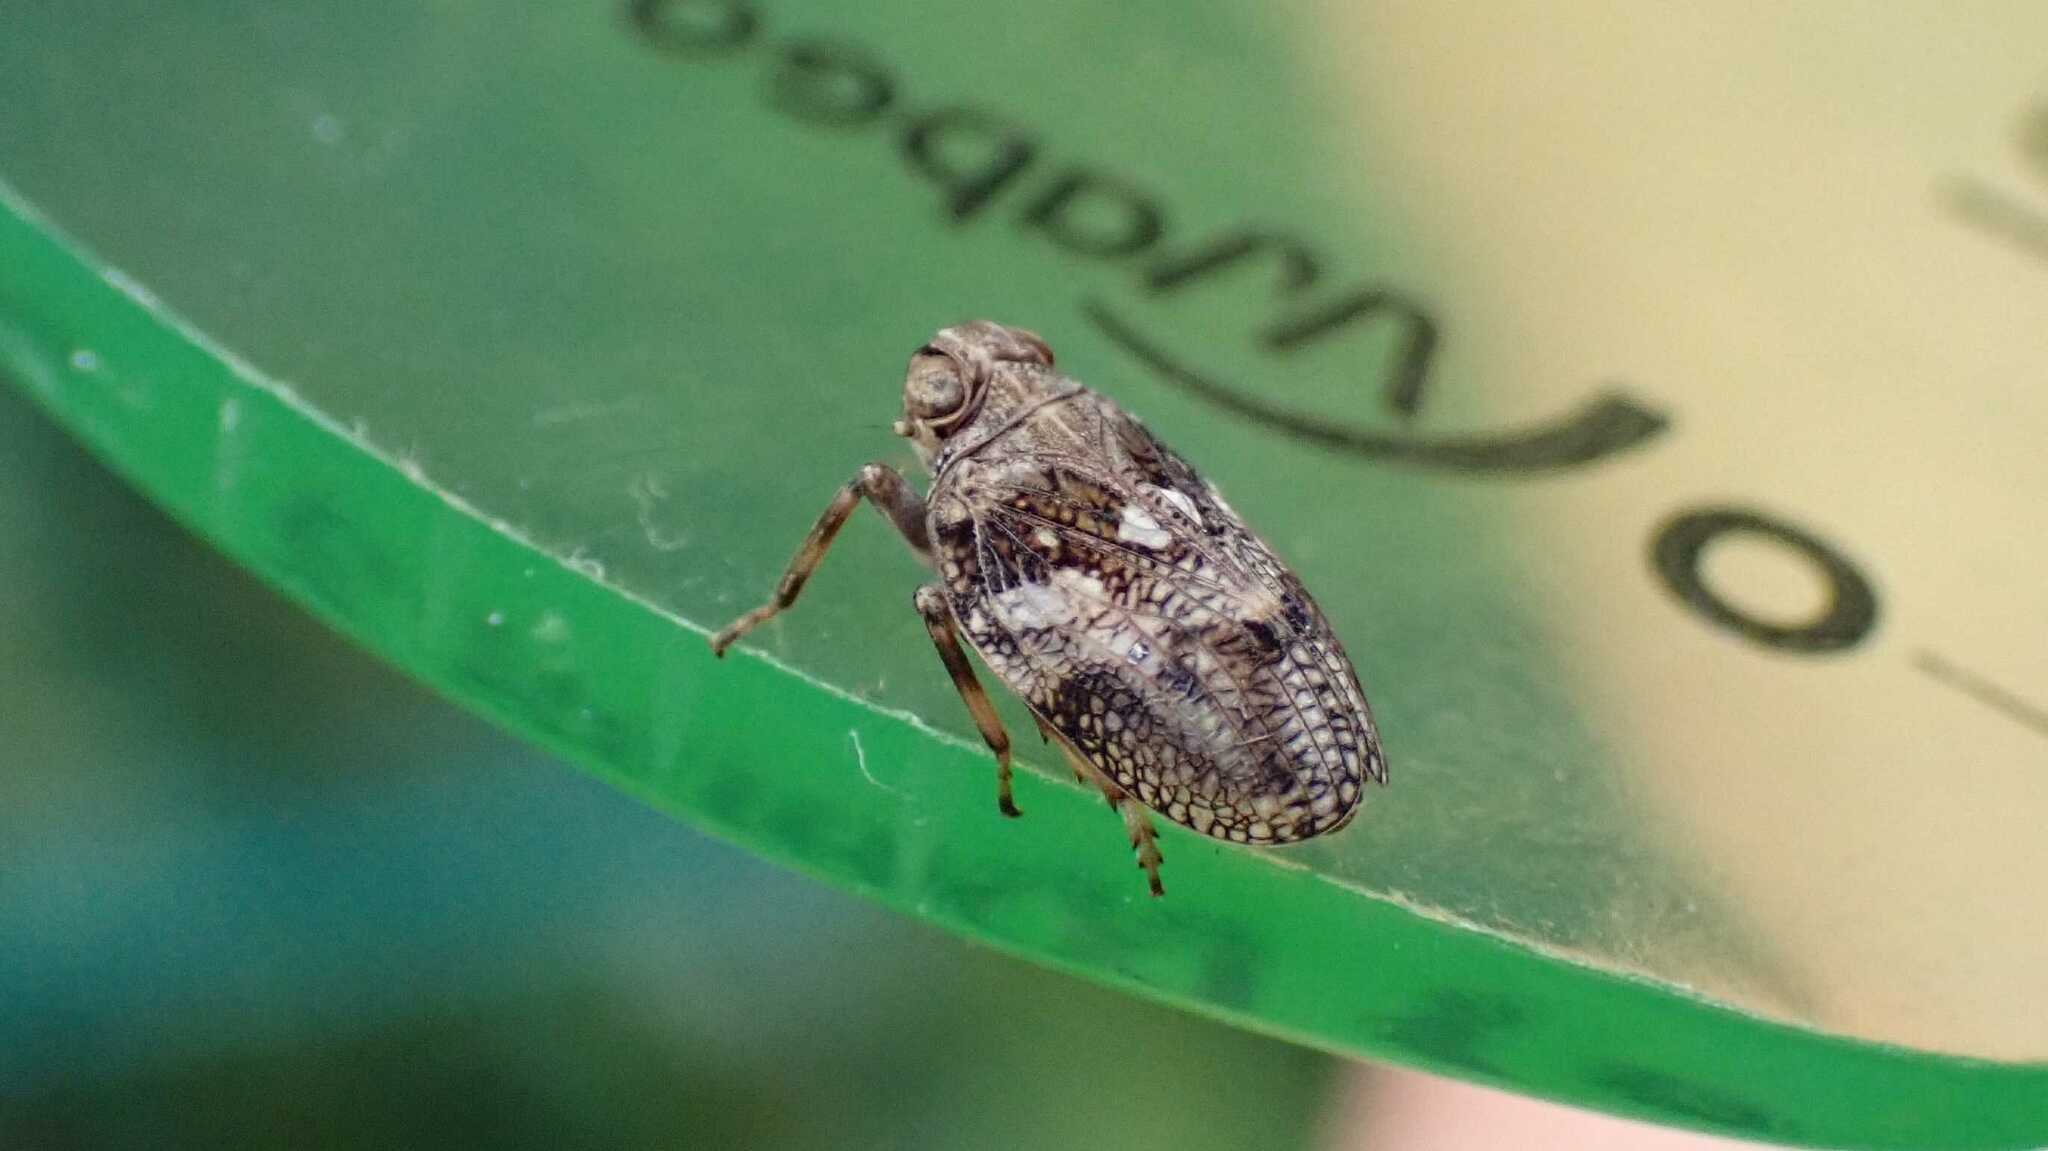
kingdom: Animalia
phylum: Arthropoda
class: Insecta
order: Hemiptera
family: Issidae
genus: Issus
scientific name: Issus coleoptratus
